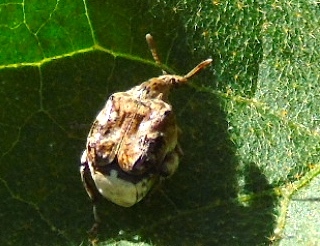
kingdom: Animalia
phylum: Arthropoda
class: Insecta
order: Coleoptera
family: Chrysomelidae
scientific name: Chrysomelidae
